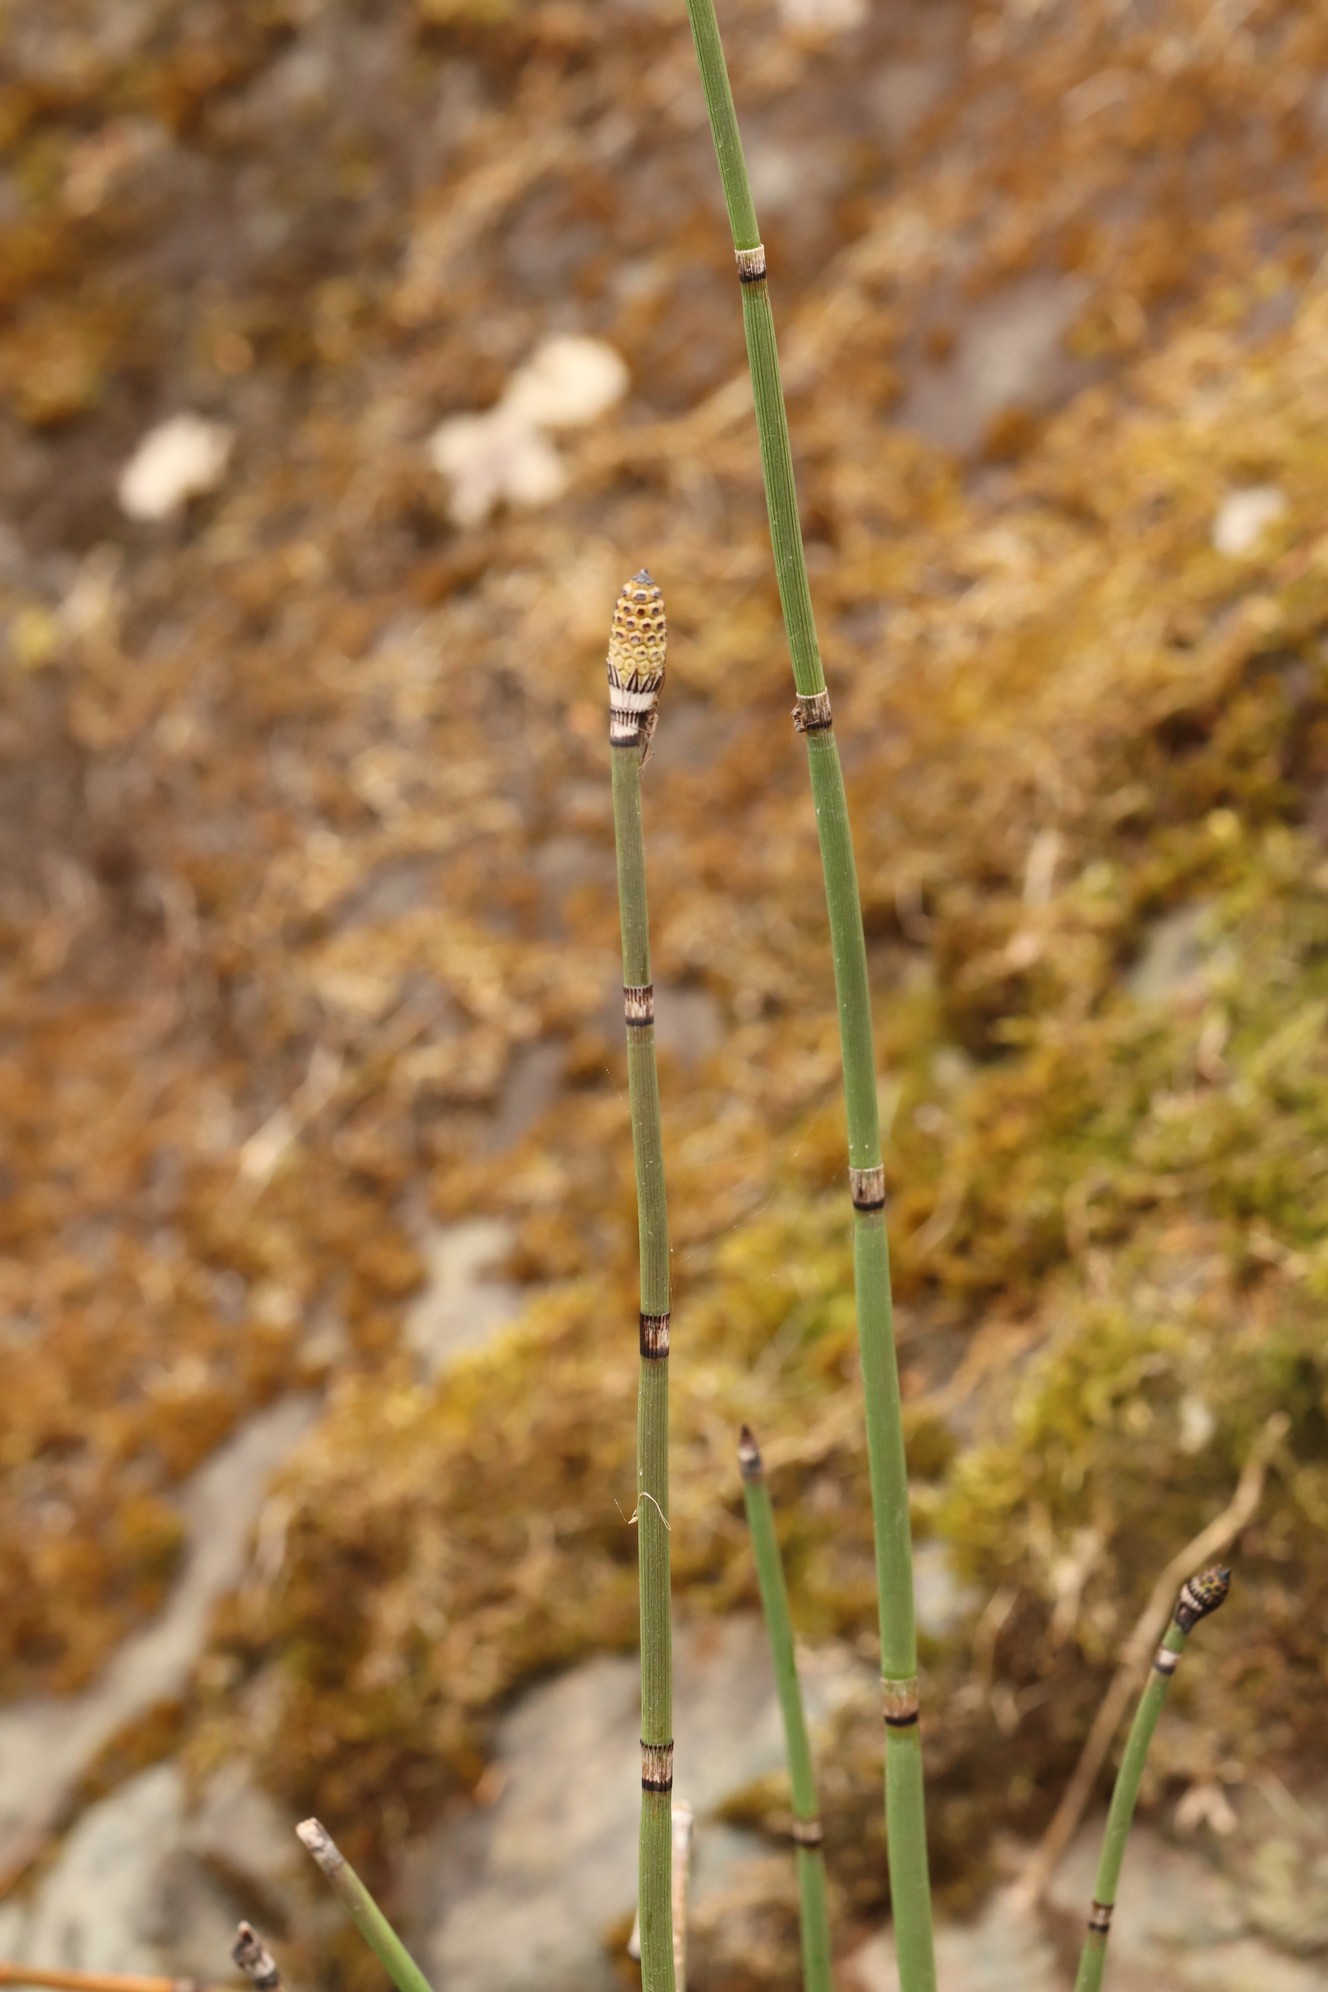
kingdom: Plantae
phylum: Tracheophyta
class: Polypodiopsida
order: Equisetales
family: Equisetaceae
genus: Equisetum
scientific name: Equisetum hyemale
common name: Rough horsetail
